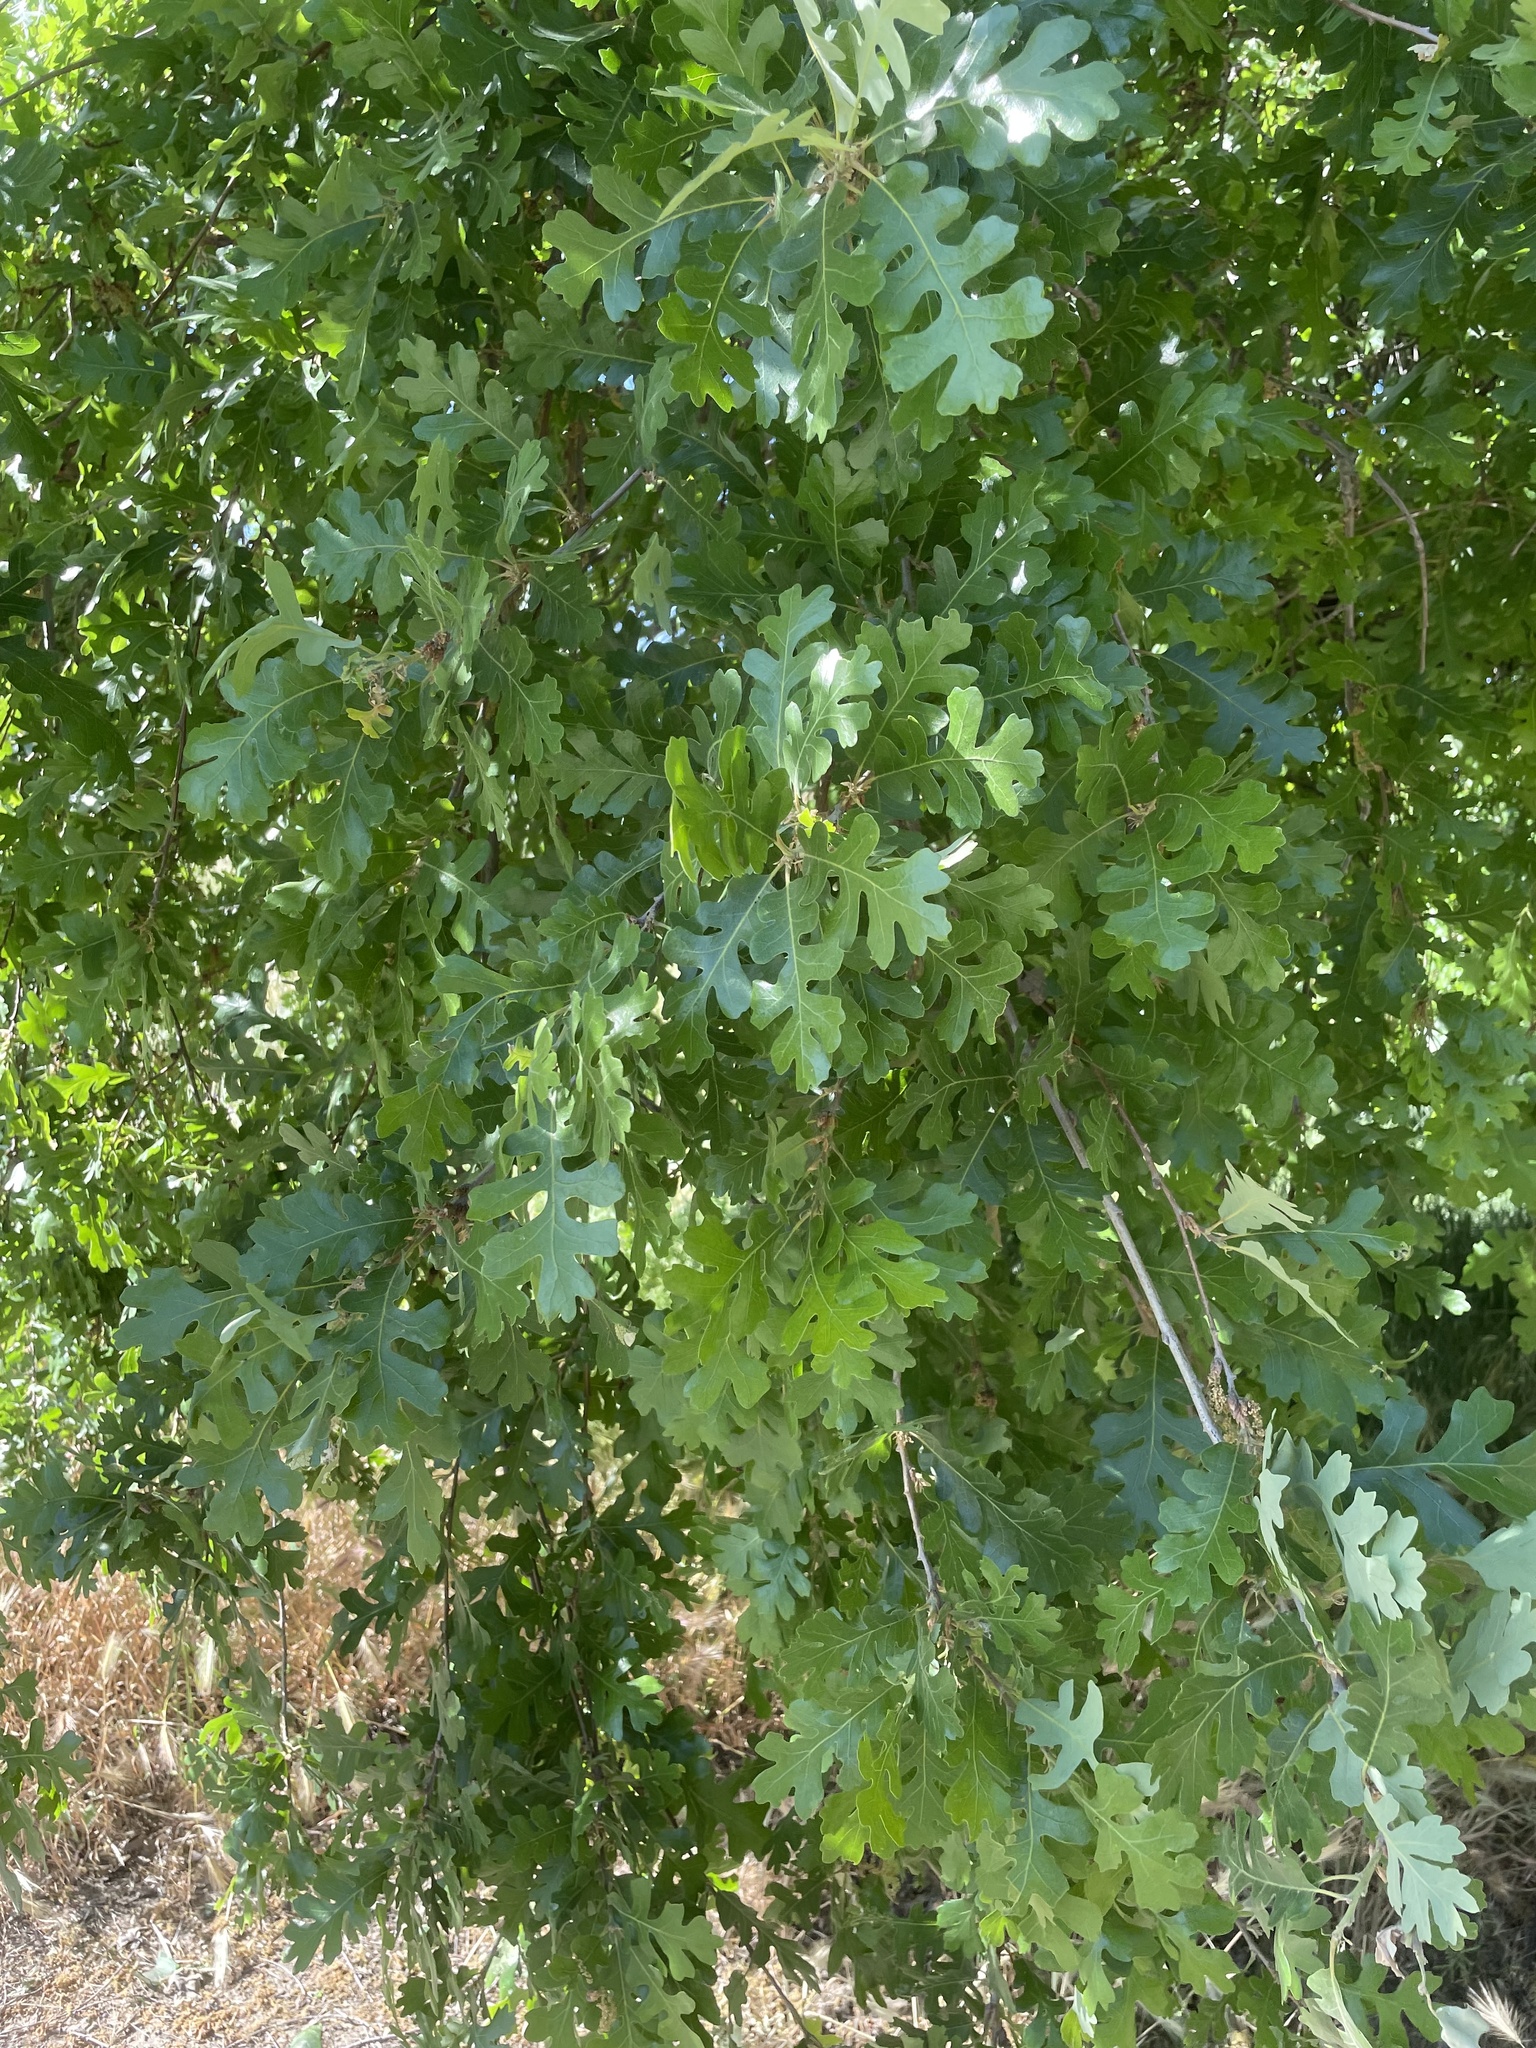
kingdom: Plantae
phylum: Tracheophyta
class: Magnoliopsida
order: Fagales
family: Fagaceae
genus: Quercus
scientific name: Quercus lobata
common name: Valley oak
